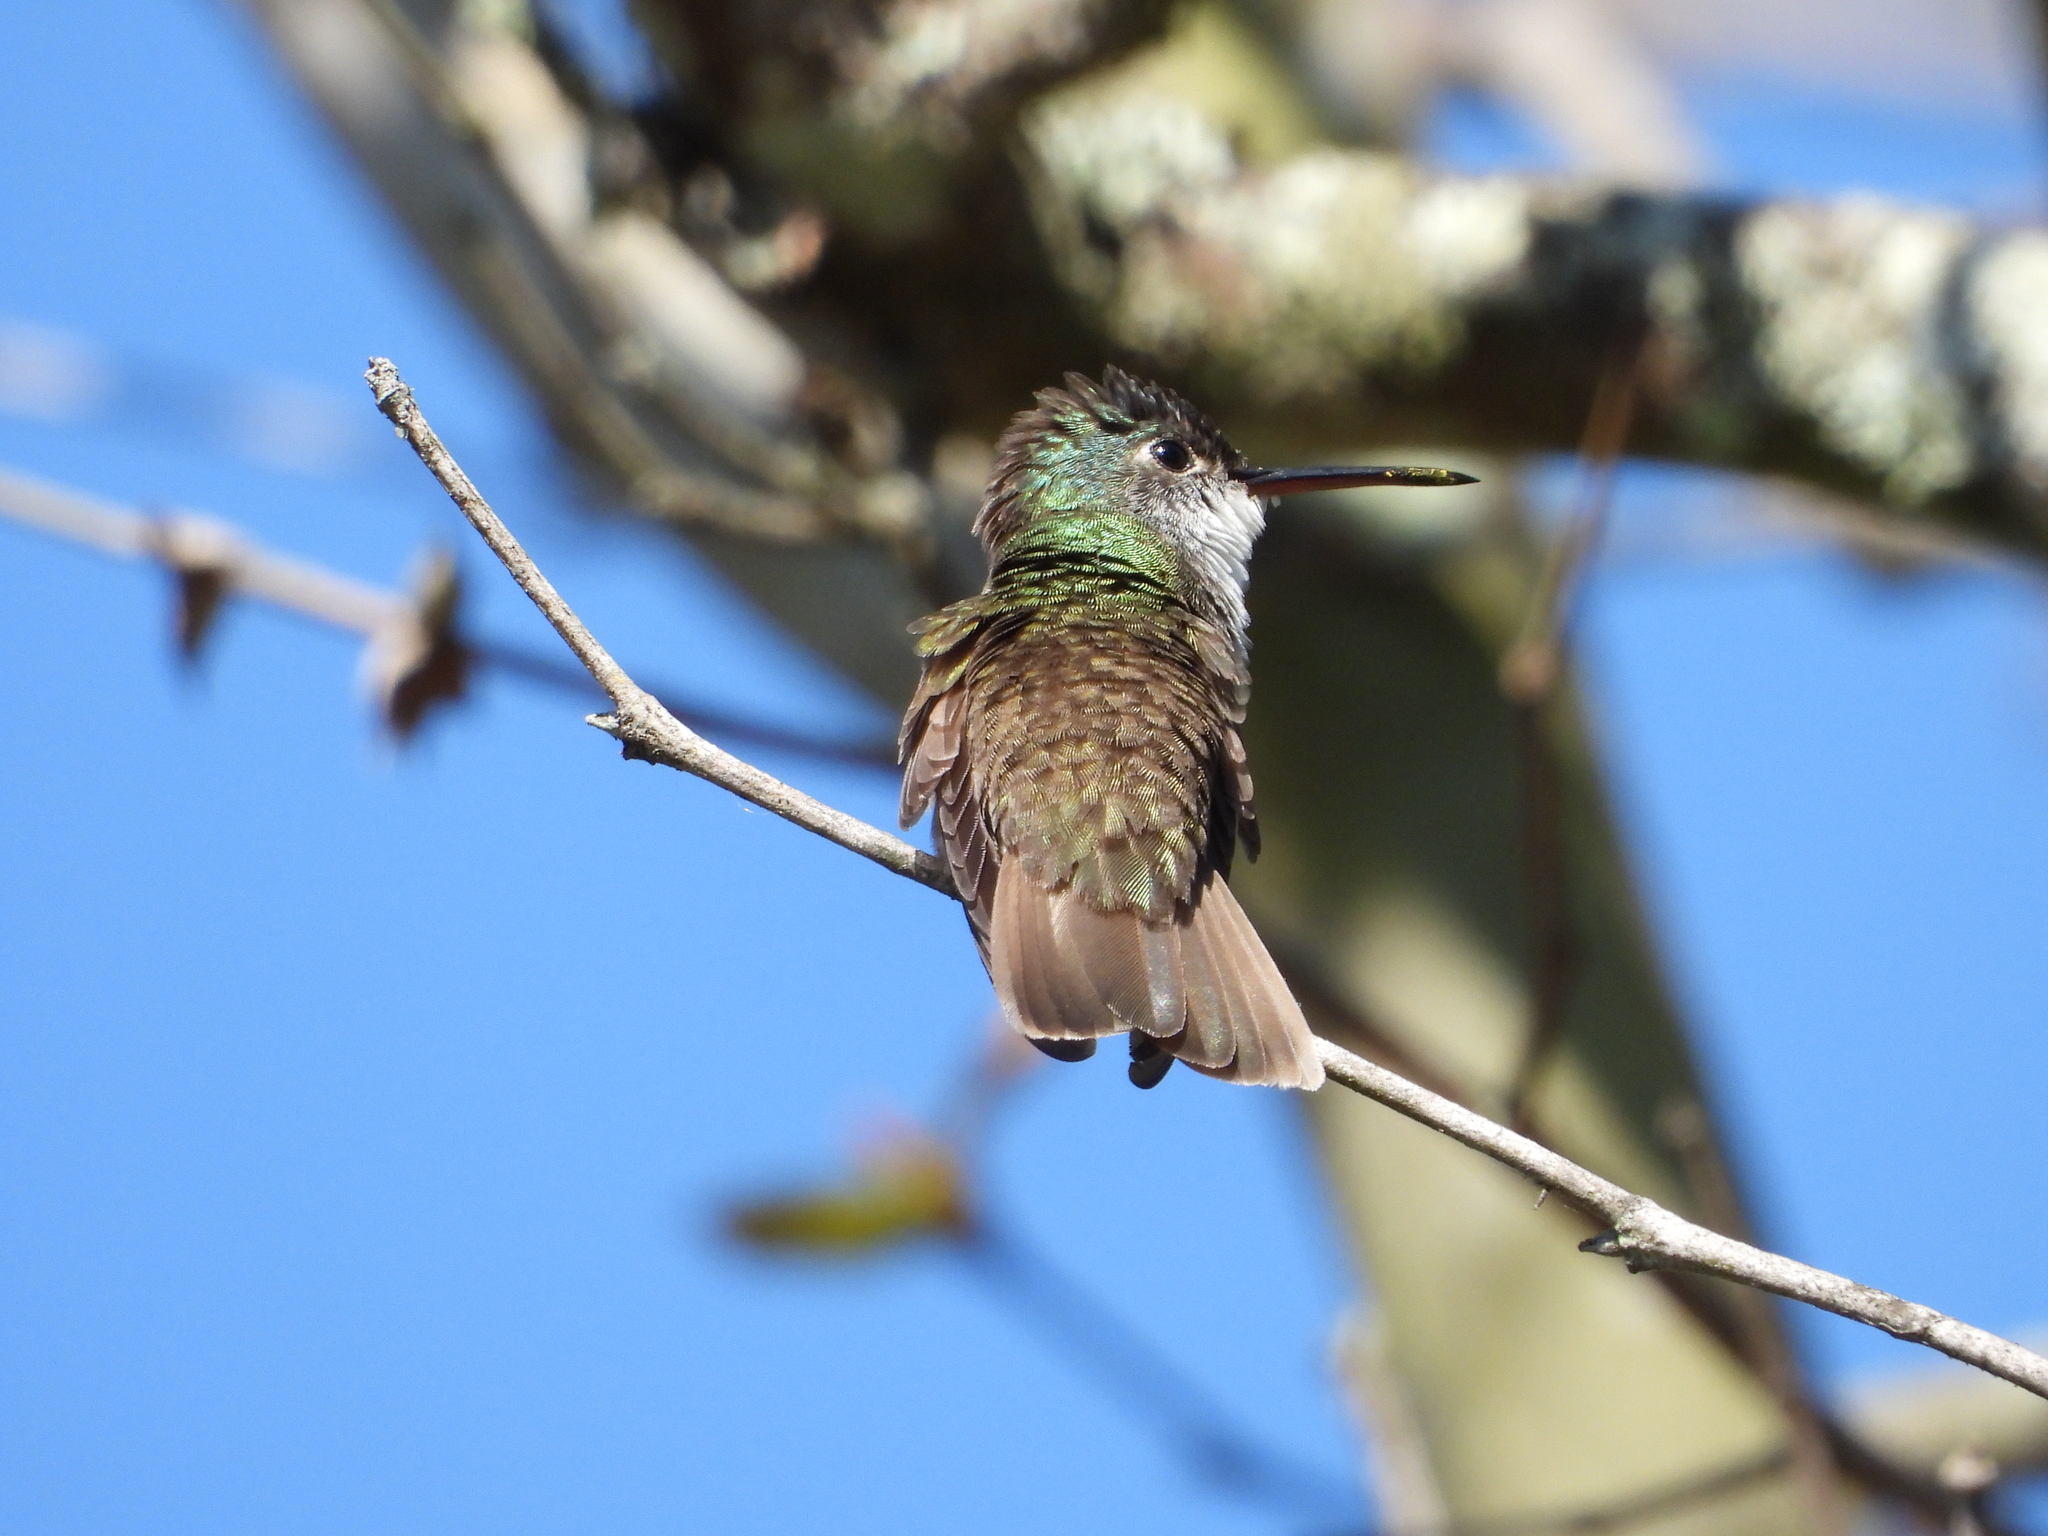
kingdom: Animalia
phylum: Chordata
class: Aves
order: Apodiformes
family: Trochilidae
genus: Saucerottia
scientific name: Saucerottia cyanocephala
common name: Azure-crowned hummingbird
